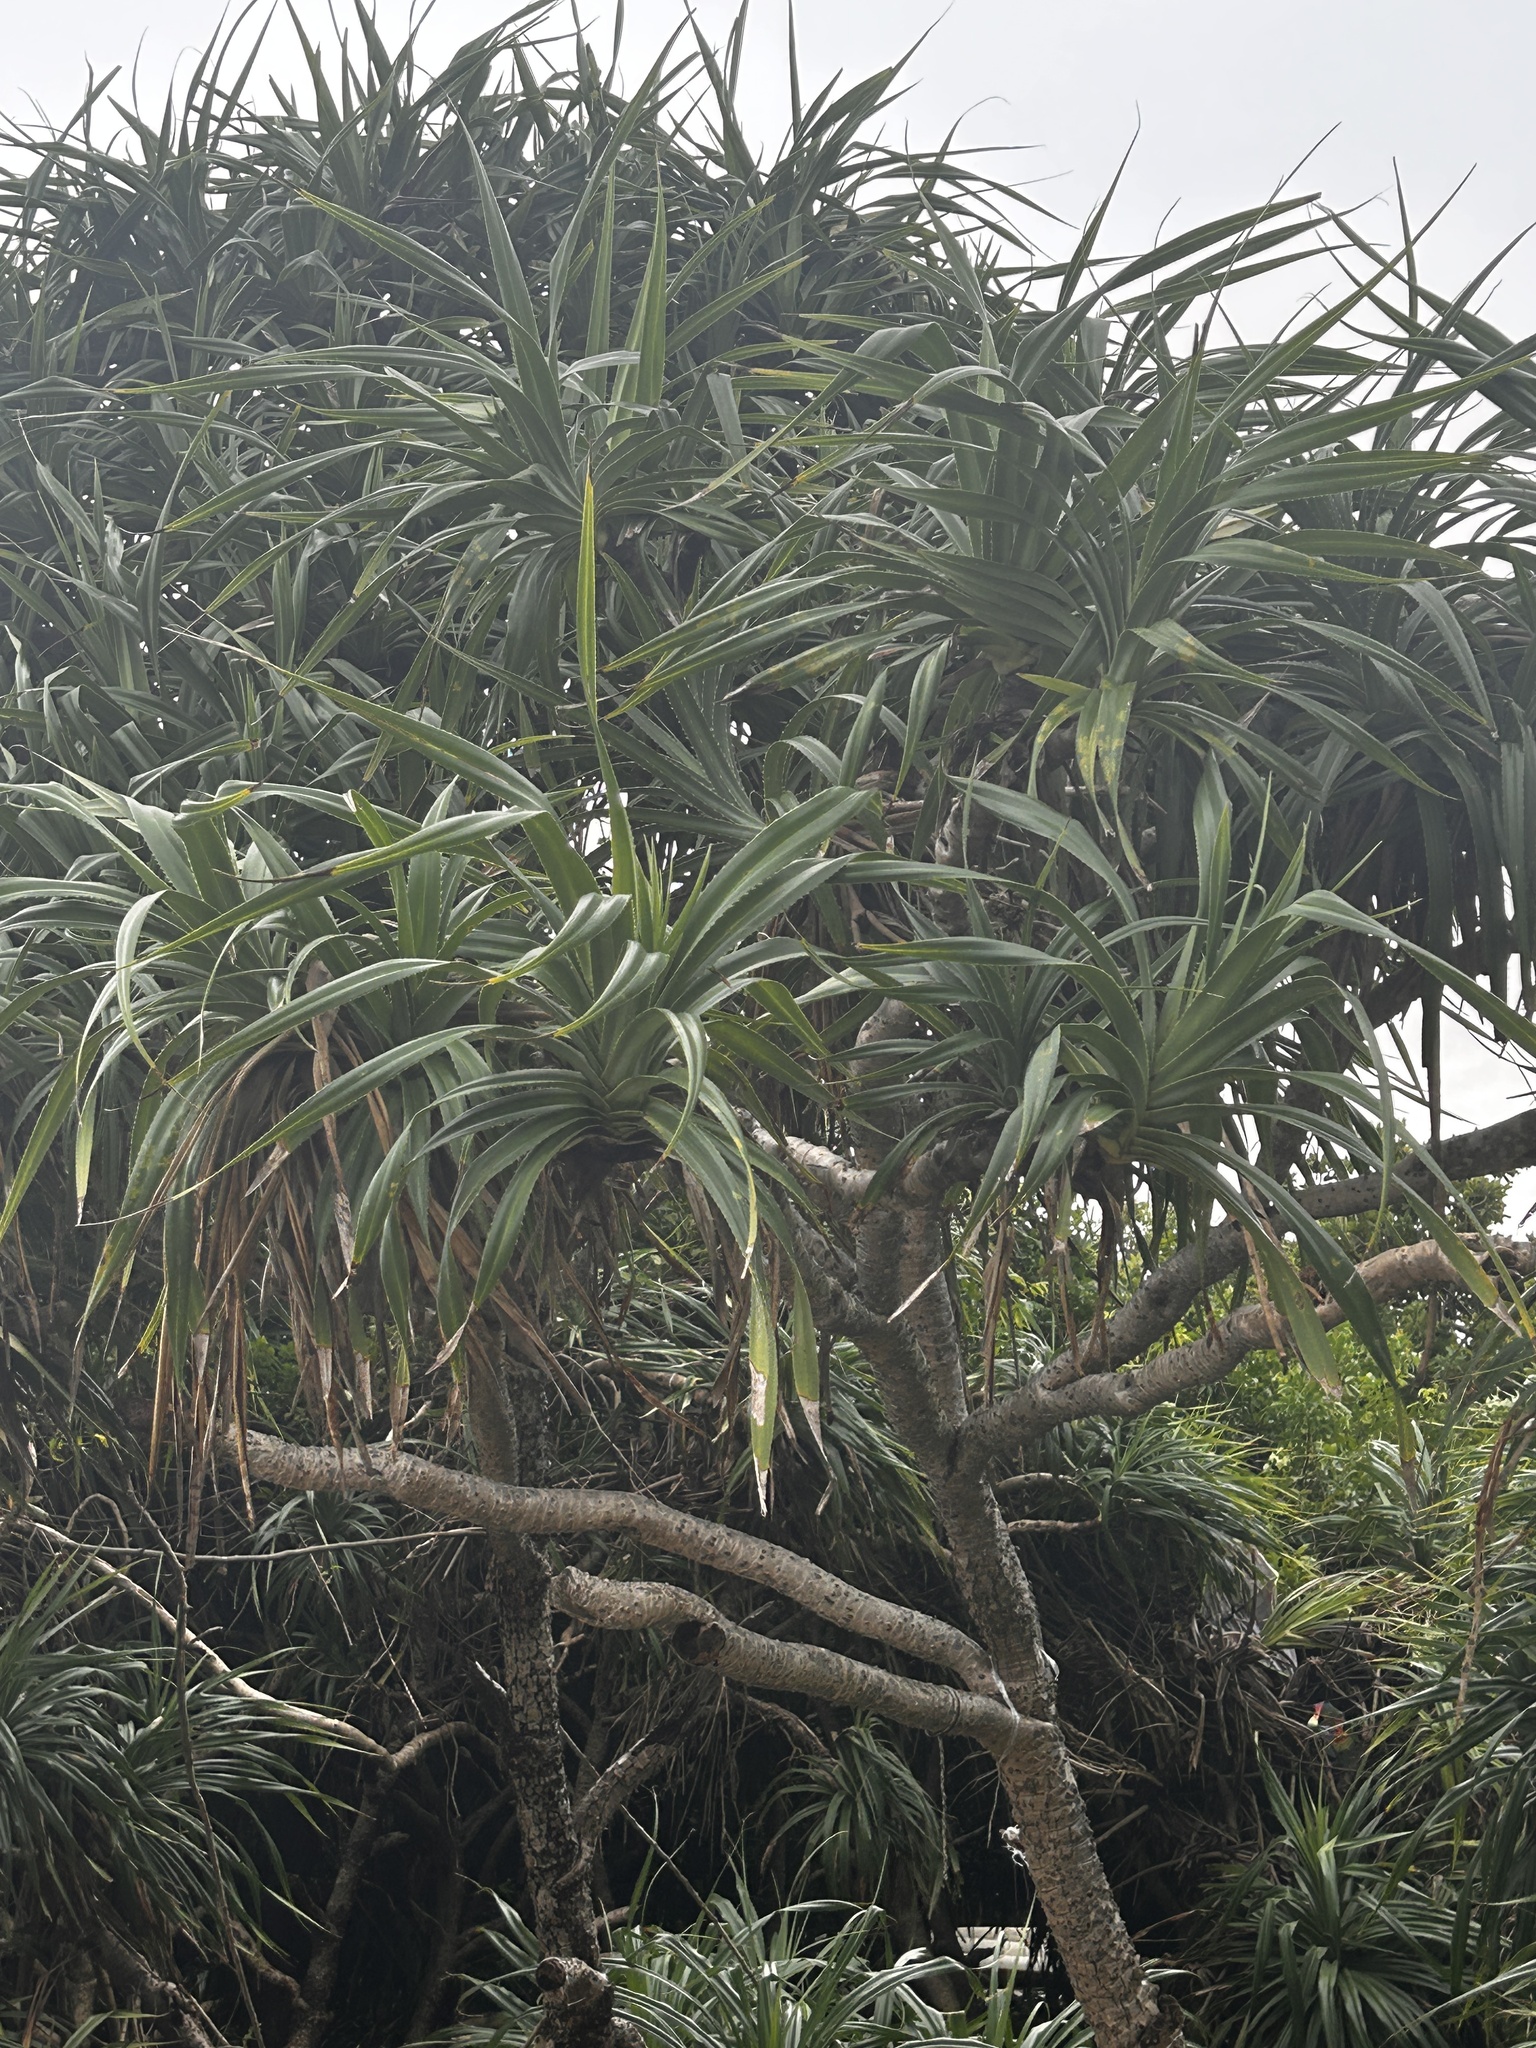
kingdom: Plantae
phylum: Tracheophyta
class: Liliopsida
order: Pandanales
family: Pandanaceae
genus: Pandanus
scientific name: Pandanus tectorius
